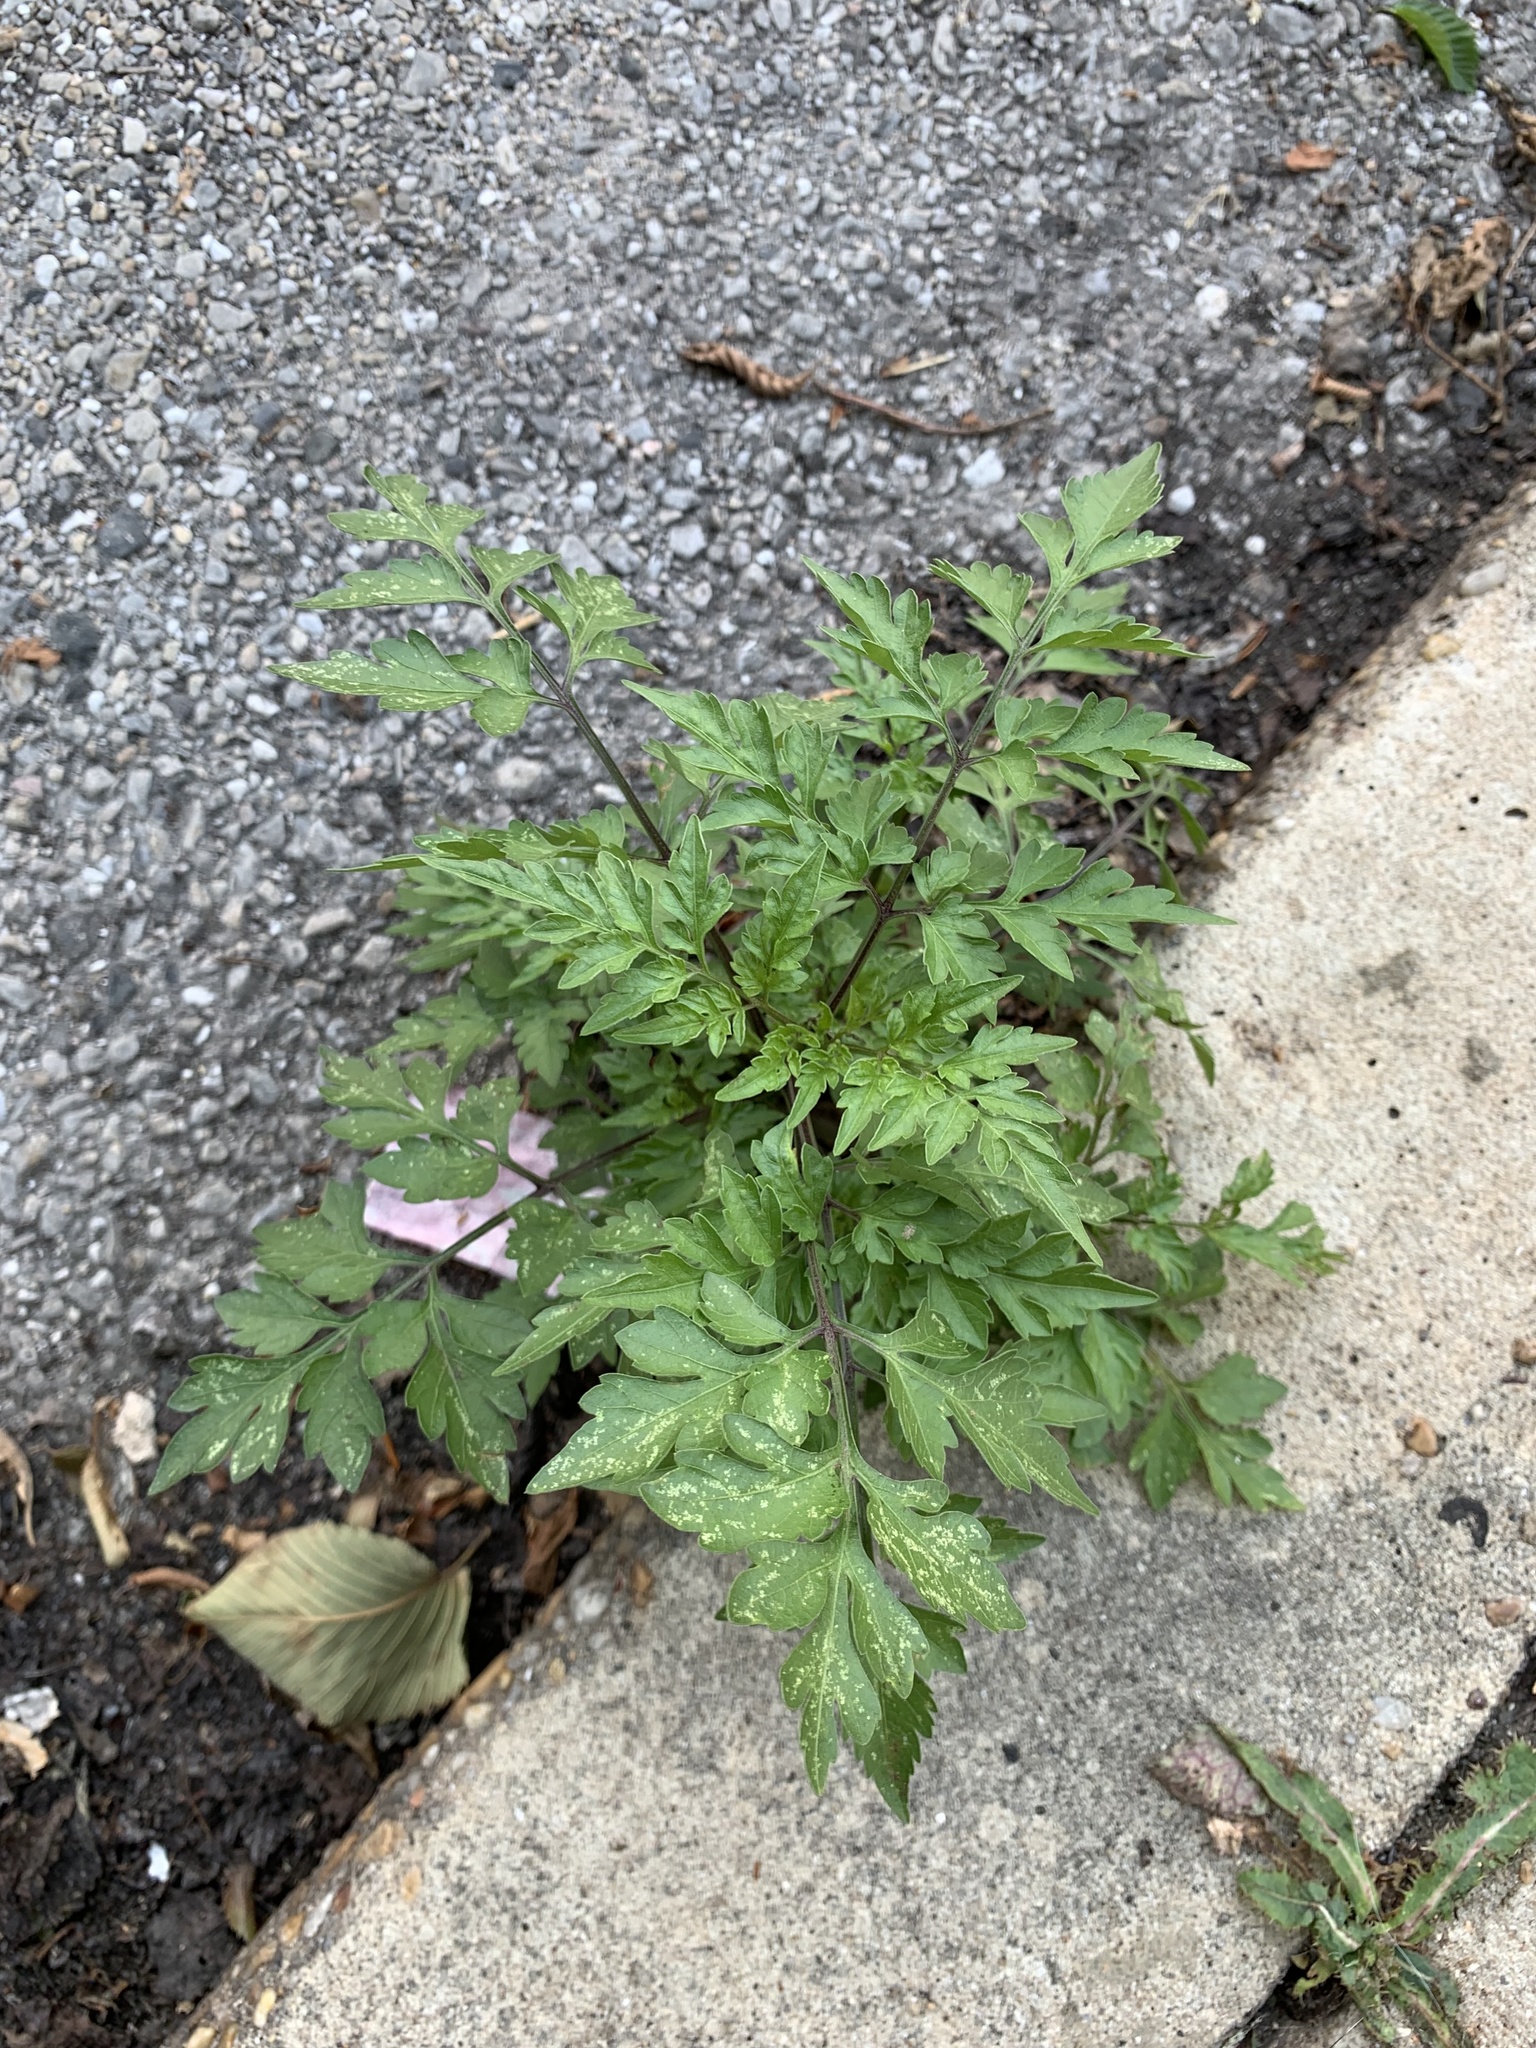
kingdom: Plantae
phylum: Tracheophyta
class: Magnoliopsida
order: Asterales
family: Asteraceae
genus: Bidens
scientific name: Bidens bipinnata
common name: Spanish-needles
